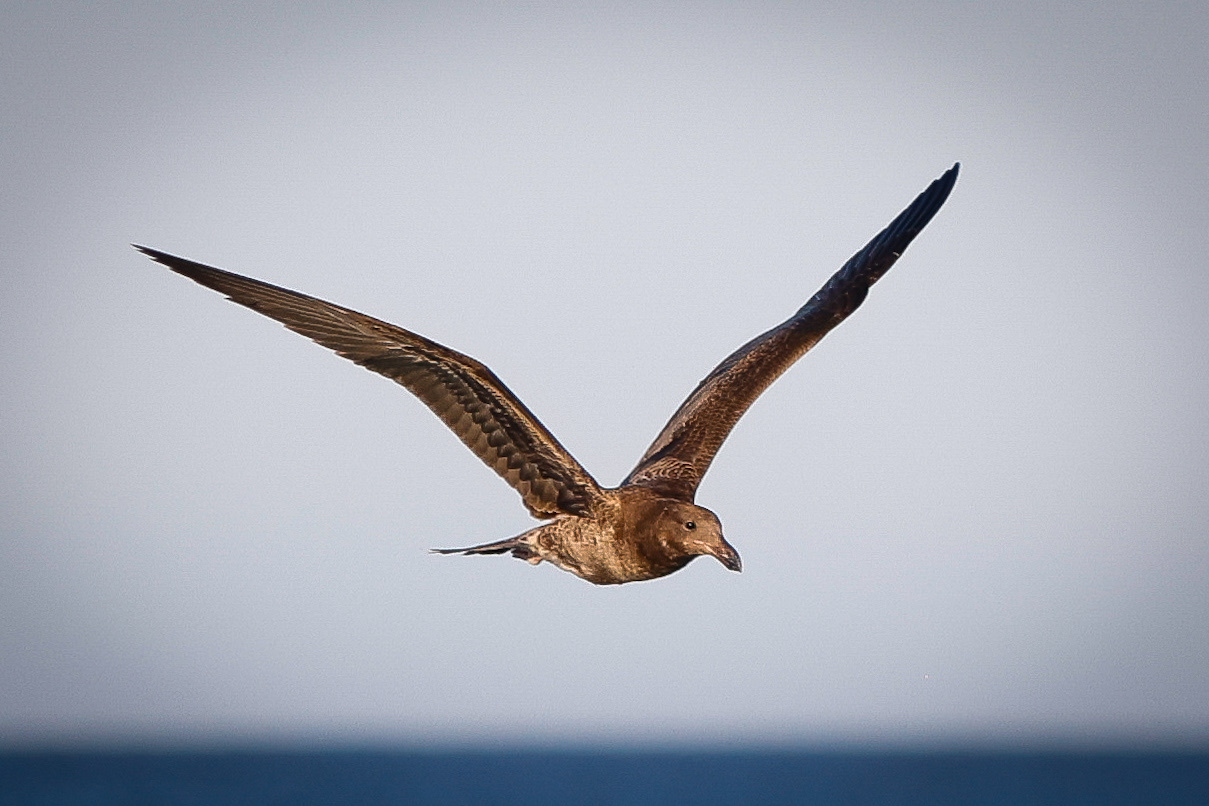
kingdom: Animalia
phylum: Chordata
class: Aves
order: Charadriiformes
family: Laridae
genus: Larus
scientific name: Larus pacificus
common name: Pacific gull
